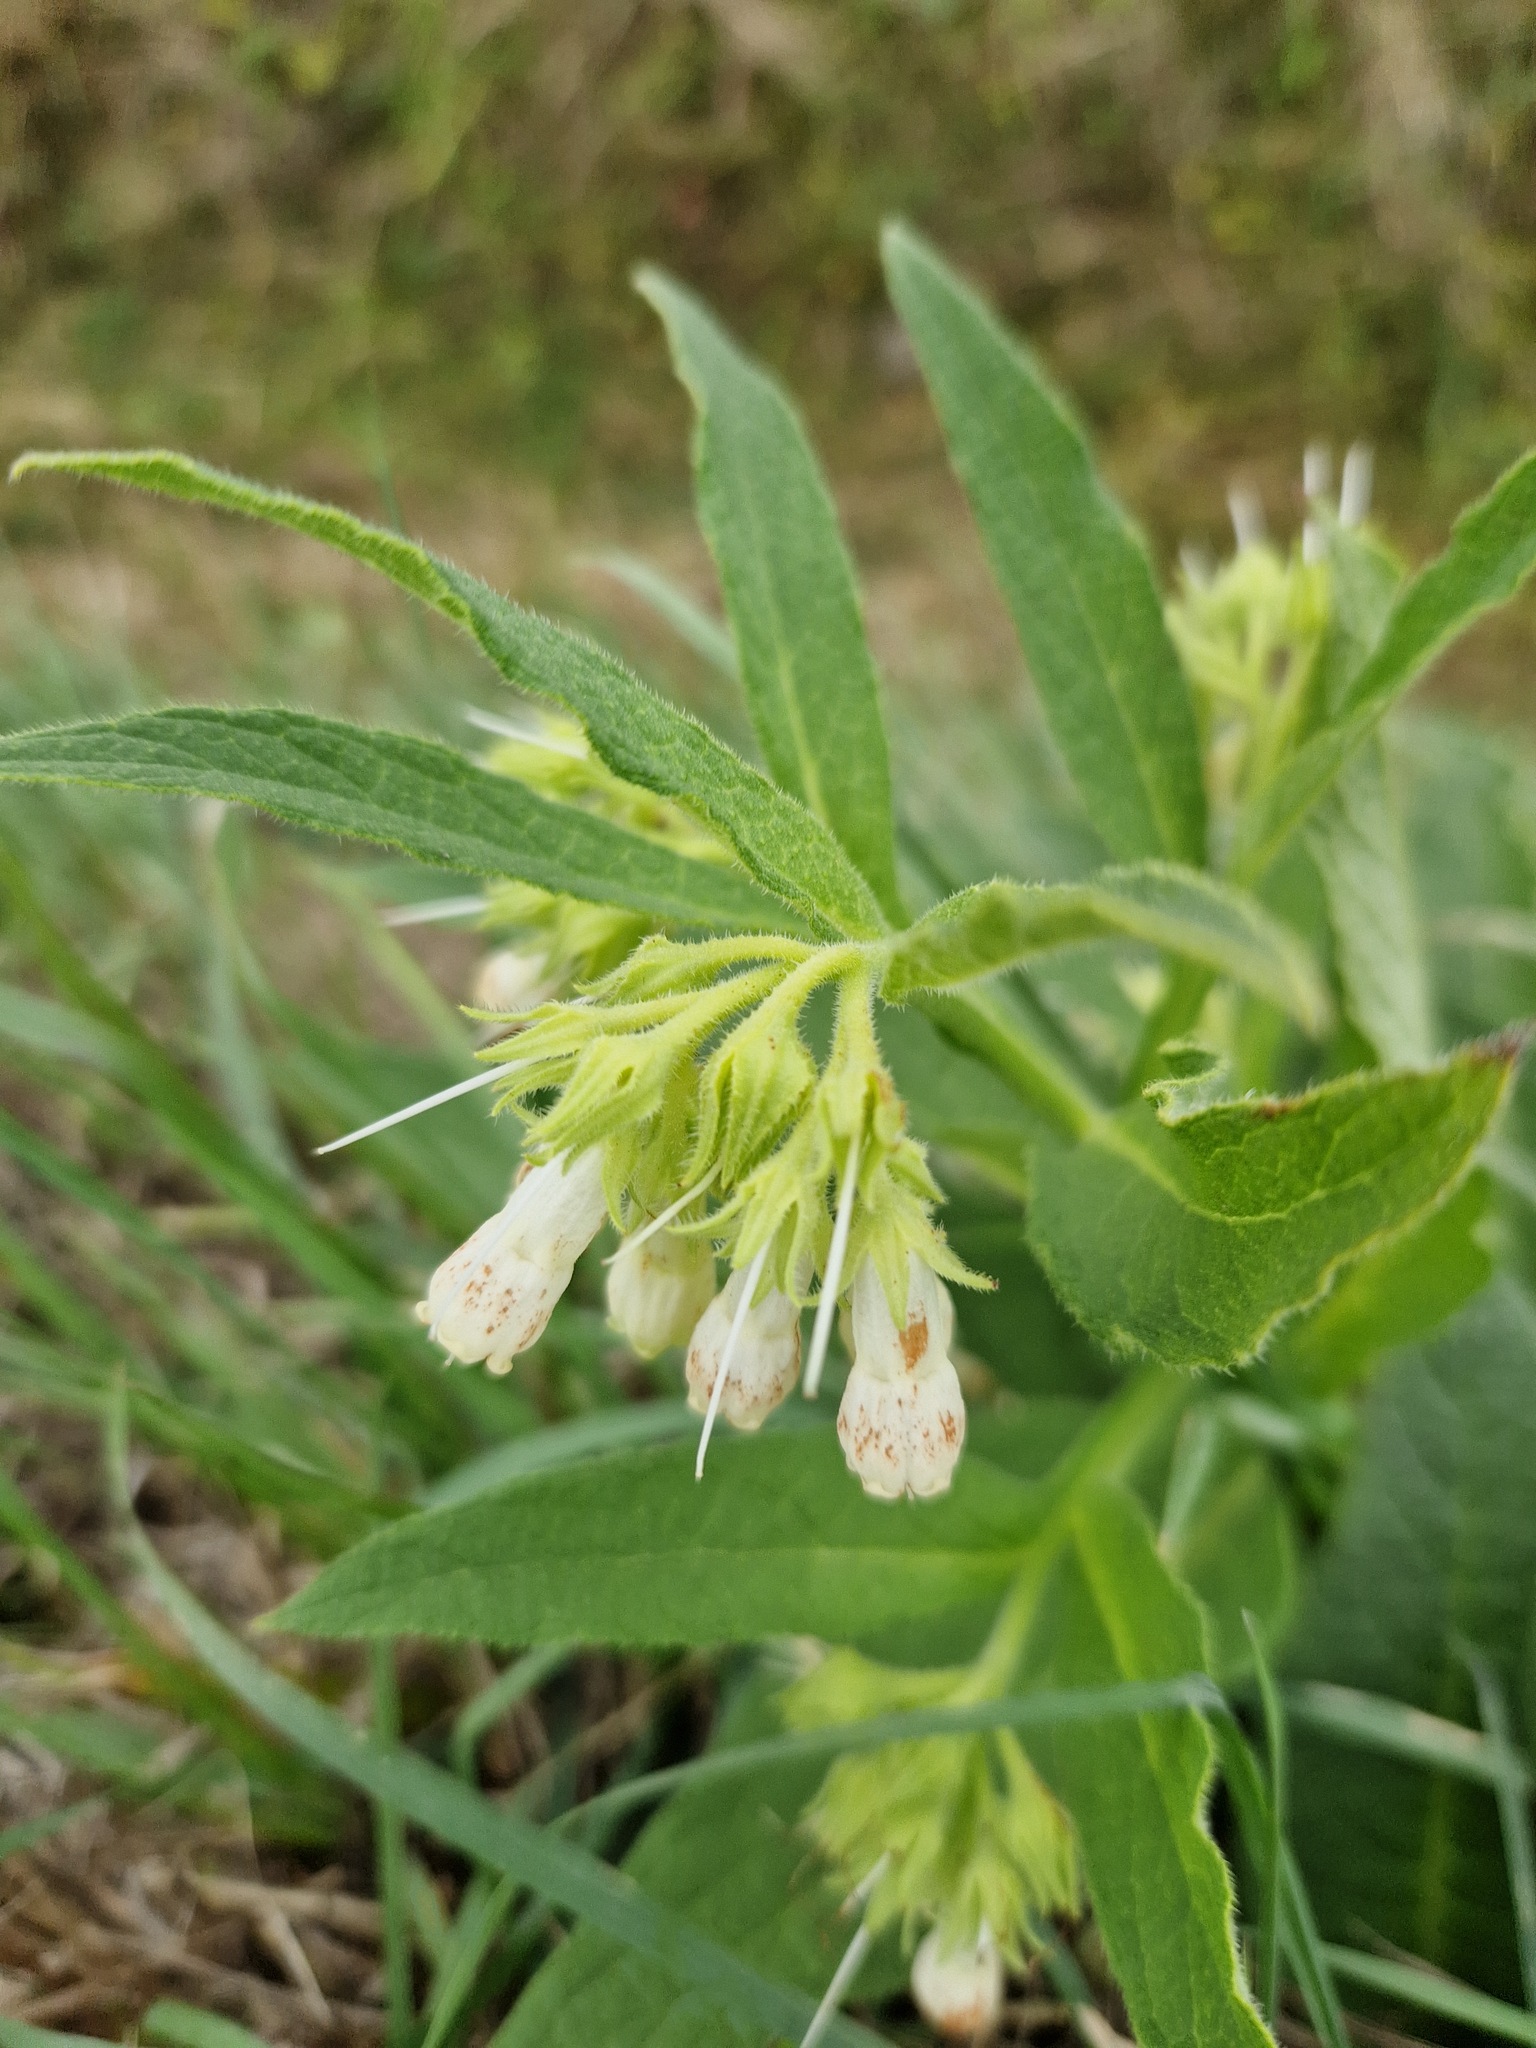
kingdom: Plantae
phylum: Tracheophyta
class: Magnoliopsida
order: Boraginales
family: Boraginaceae
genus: Symphytum
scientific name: Symphytum officinale
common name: Common comfrey
